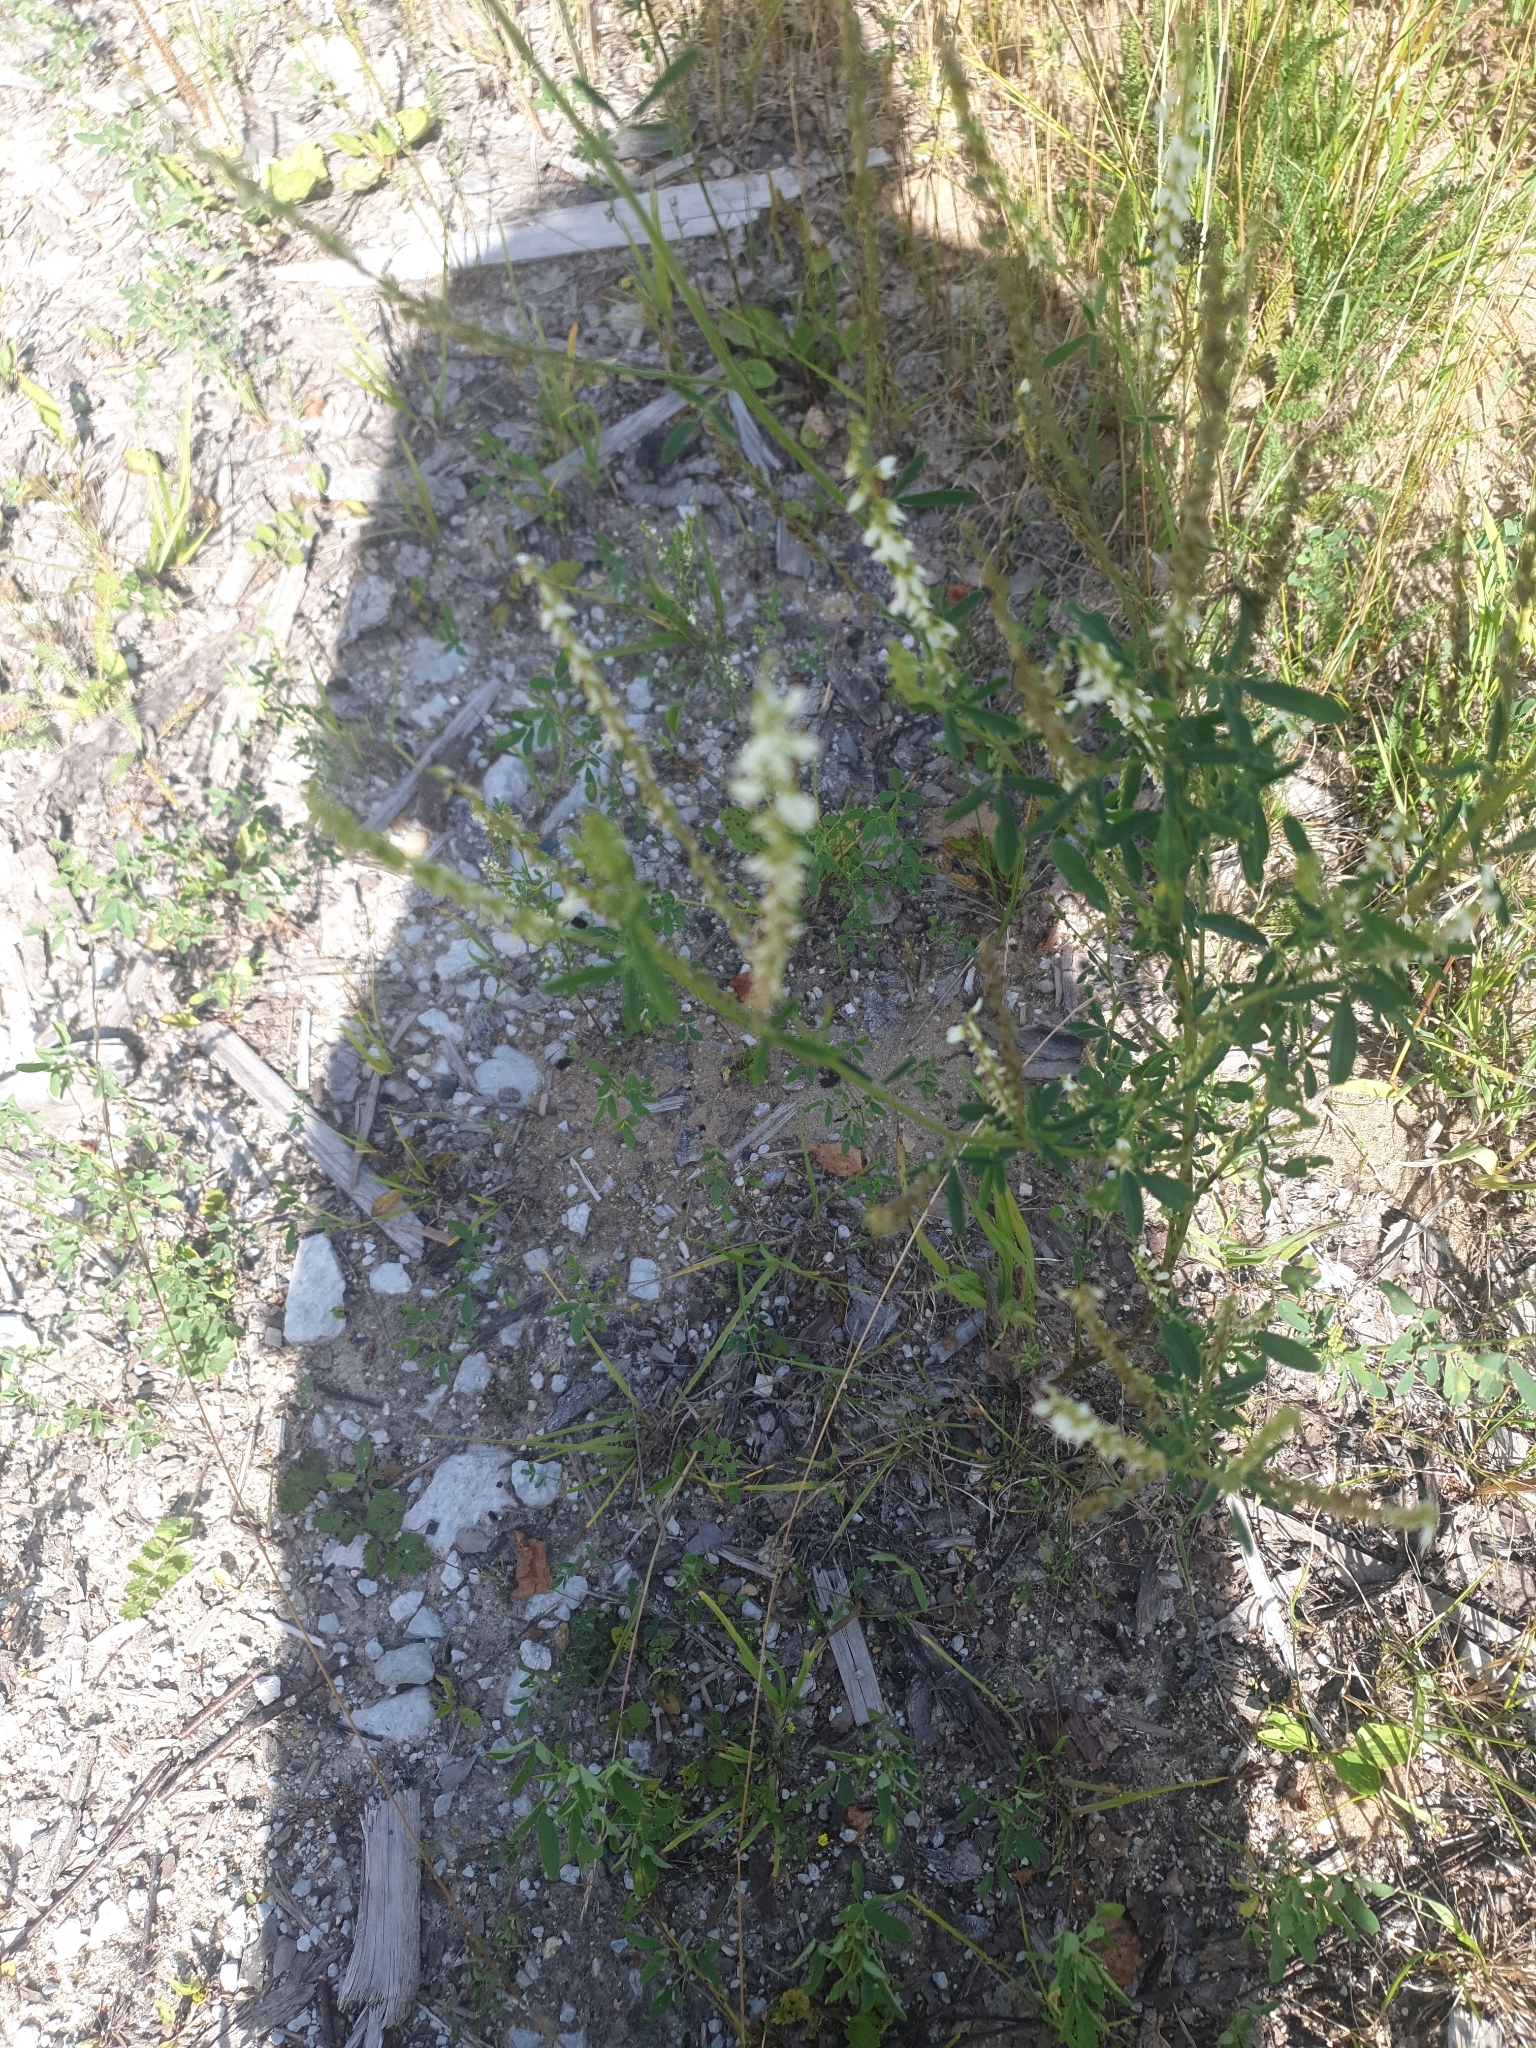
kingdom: Plantae
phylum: Tracheophyta
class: Magnoliopsida
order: Fabales
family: Fabaceae
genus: Melilotus
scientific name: Melilotus albus
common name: White melilot
